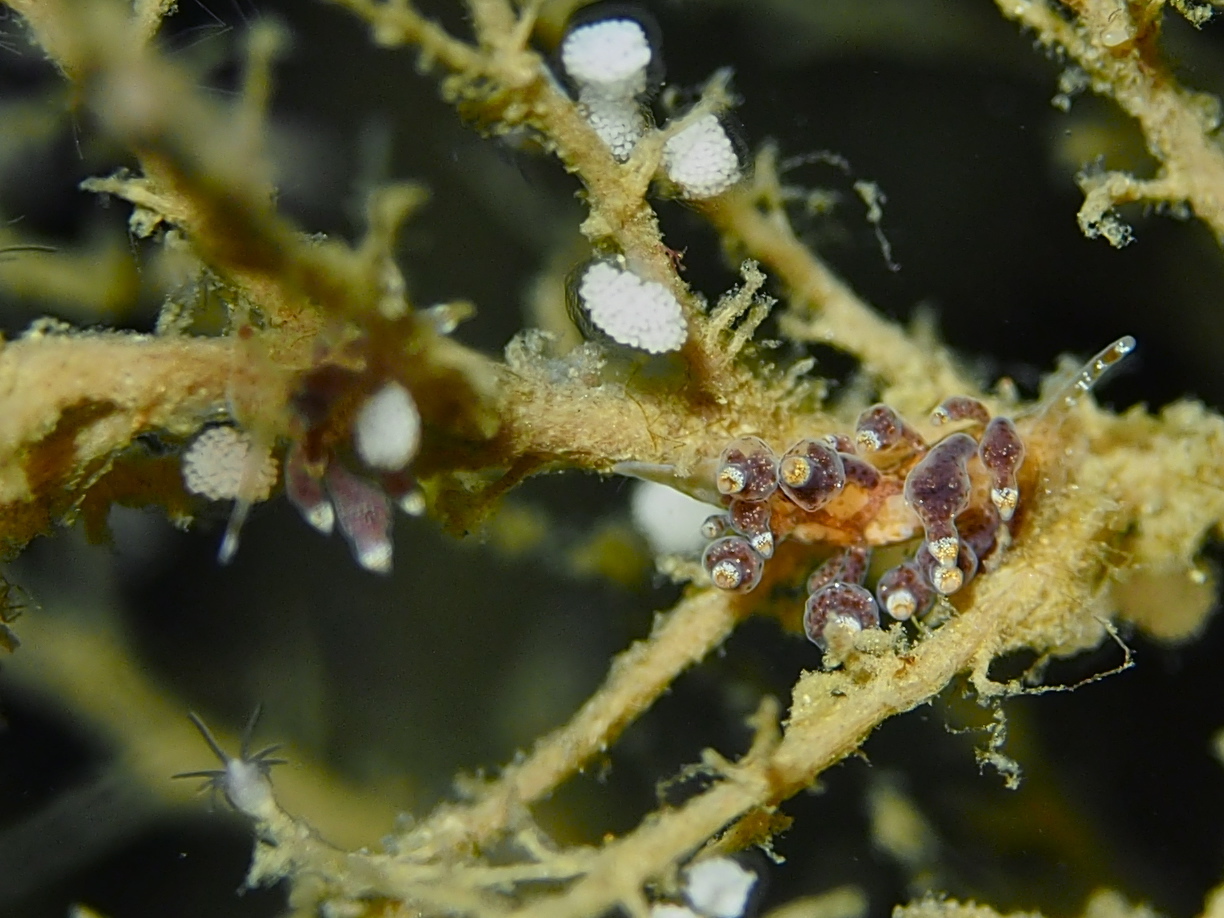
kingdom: Animalia
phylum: Mollusca
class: Gastropoda
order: Nudibranchia
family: Eubranchidae
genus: Eubranchus
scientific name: Eubranchus exiguus
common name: Balloon aeolis
